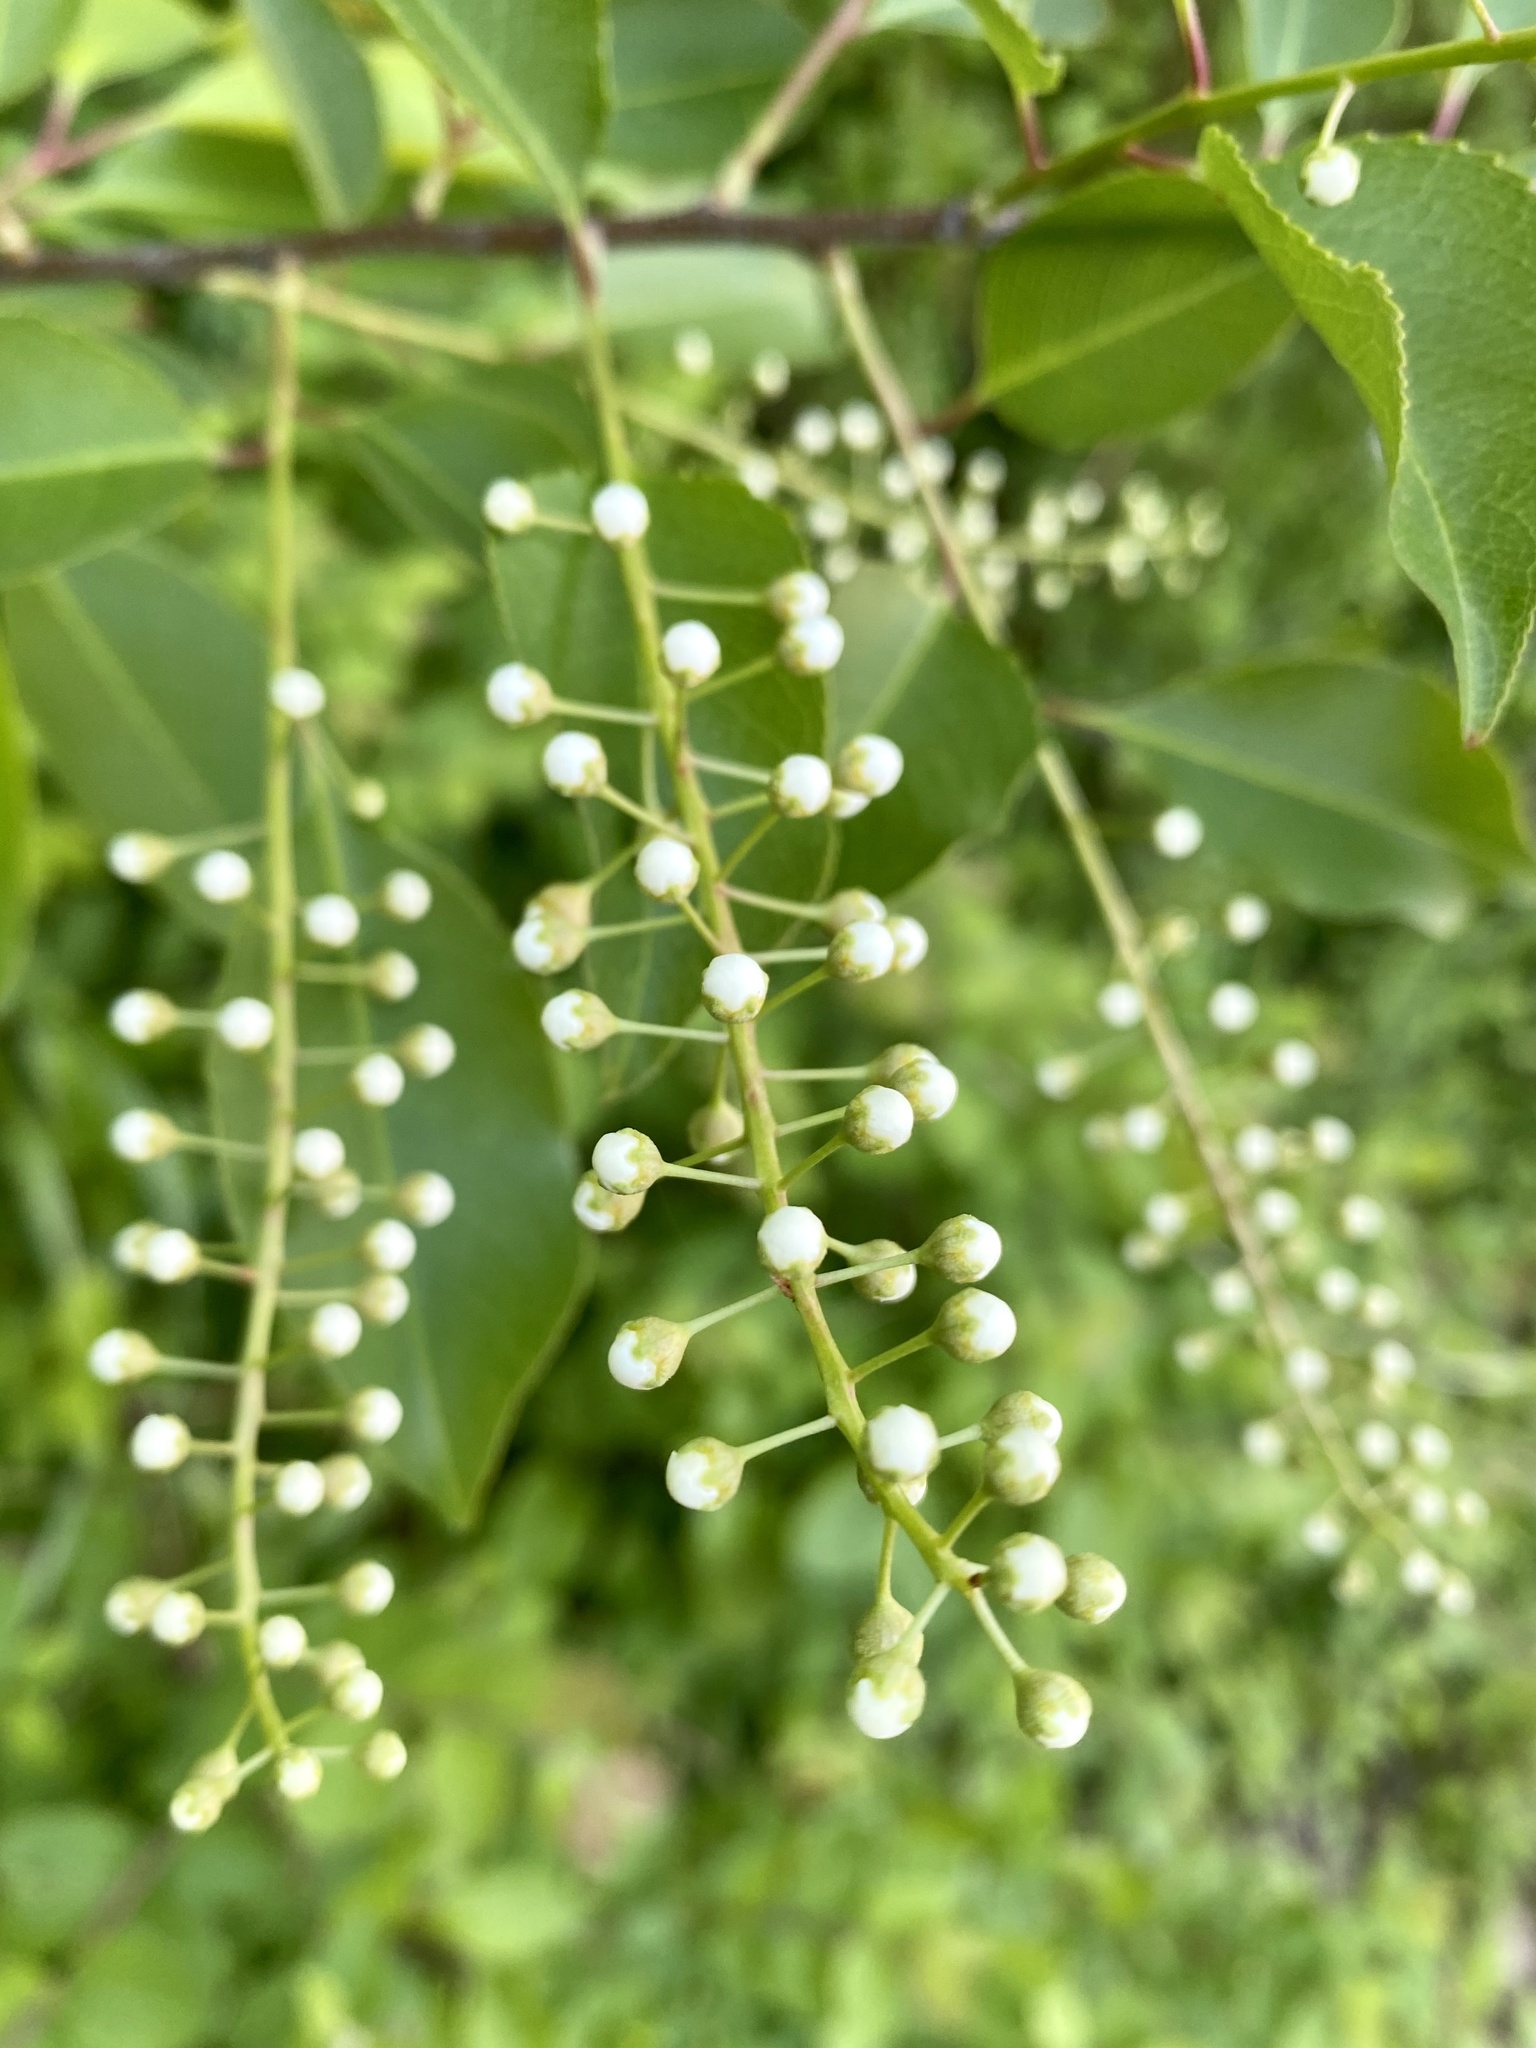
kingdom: Plantae
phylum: Tracheophyta
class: Magnoliopsida
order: Rosales
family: Rosaceae
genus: Prunus
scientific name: Prunus serotina
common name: Black cherry
